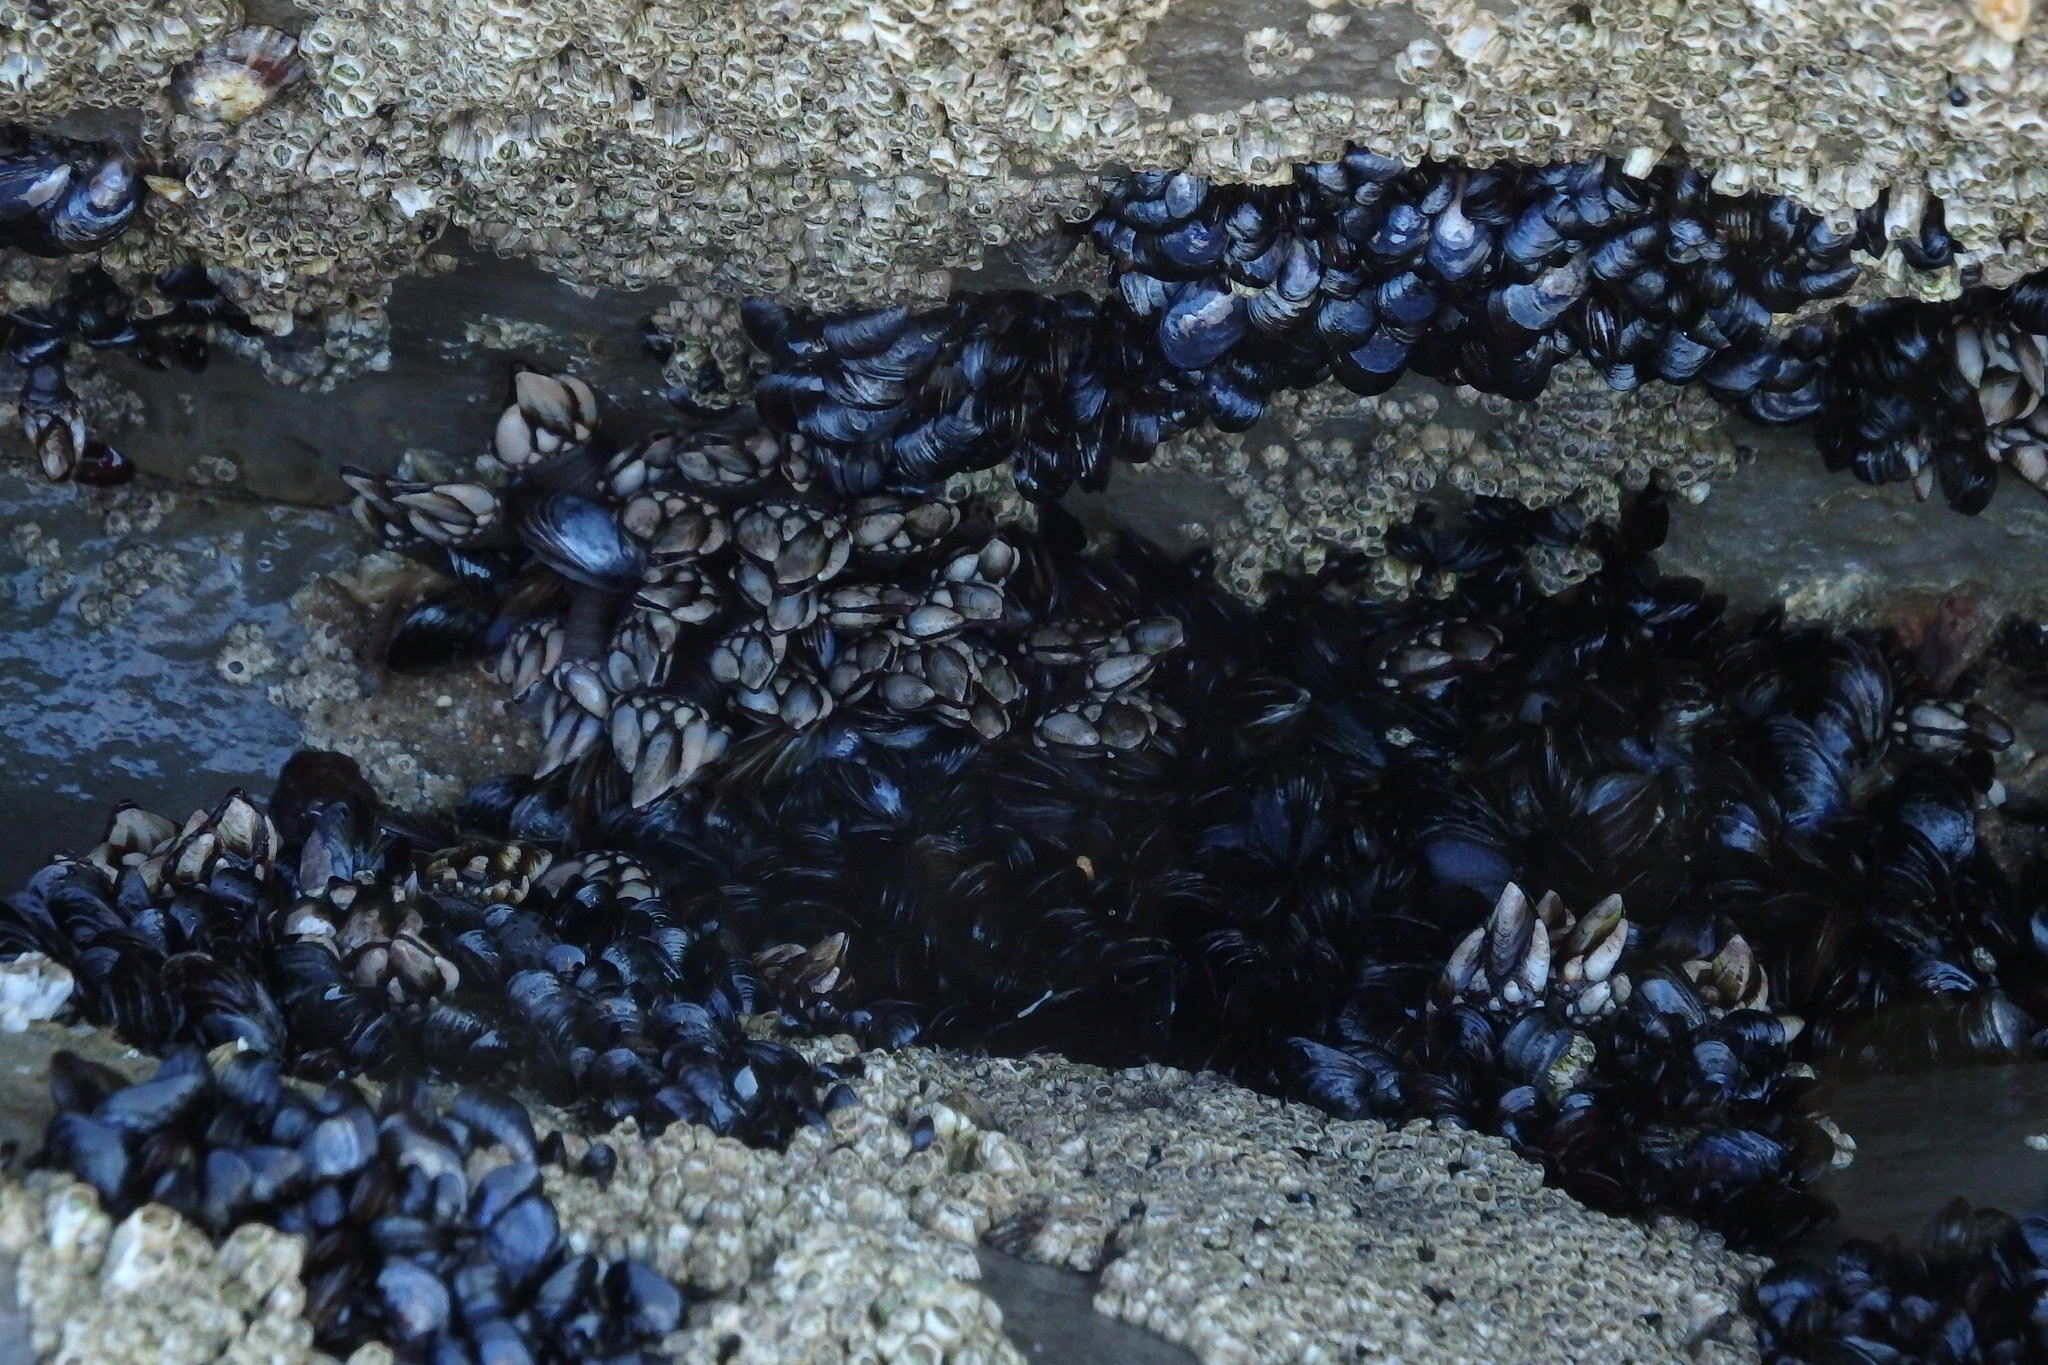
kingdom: Animalia
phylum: Arthropoda
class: Maxillopoda
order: Pedunculata
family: Pollicipedidae
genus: Pollicipes
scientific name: Pollicipes pollicipes
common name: Gooseneck barnacle
